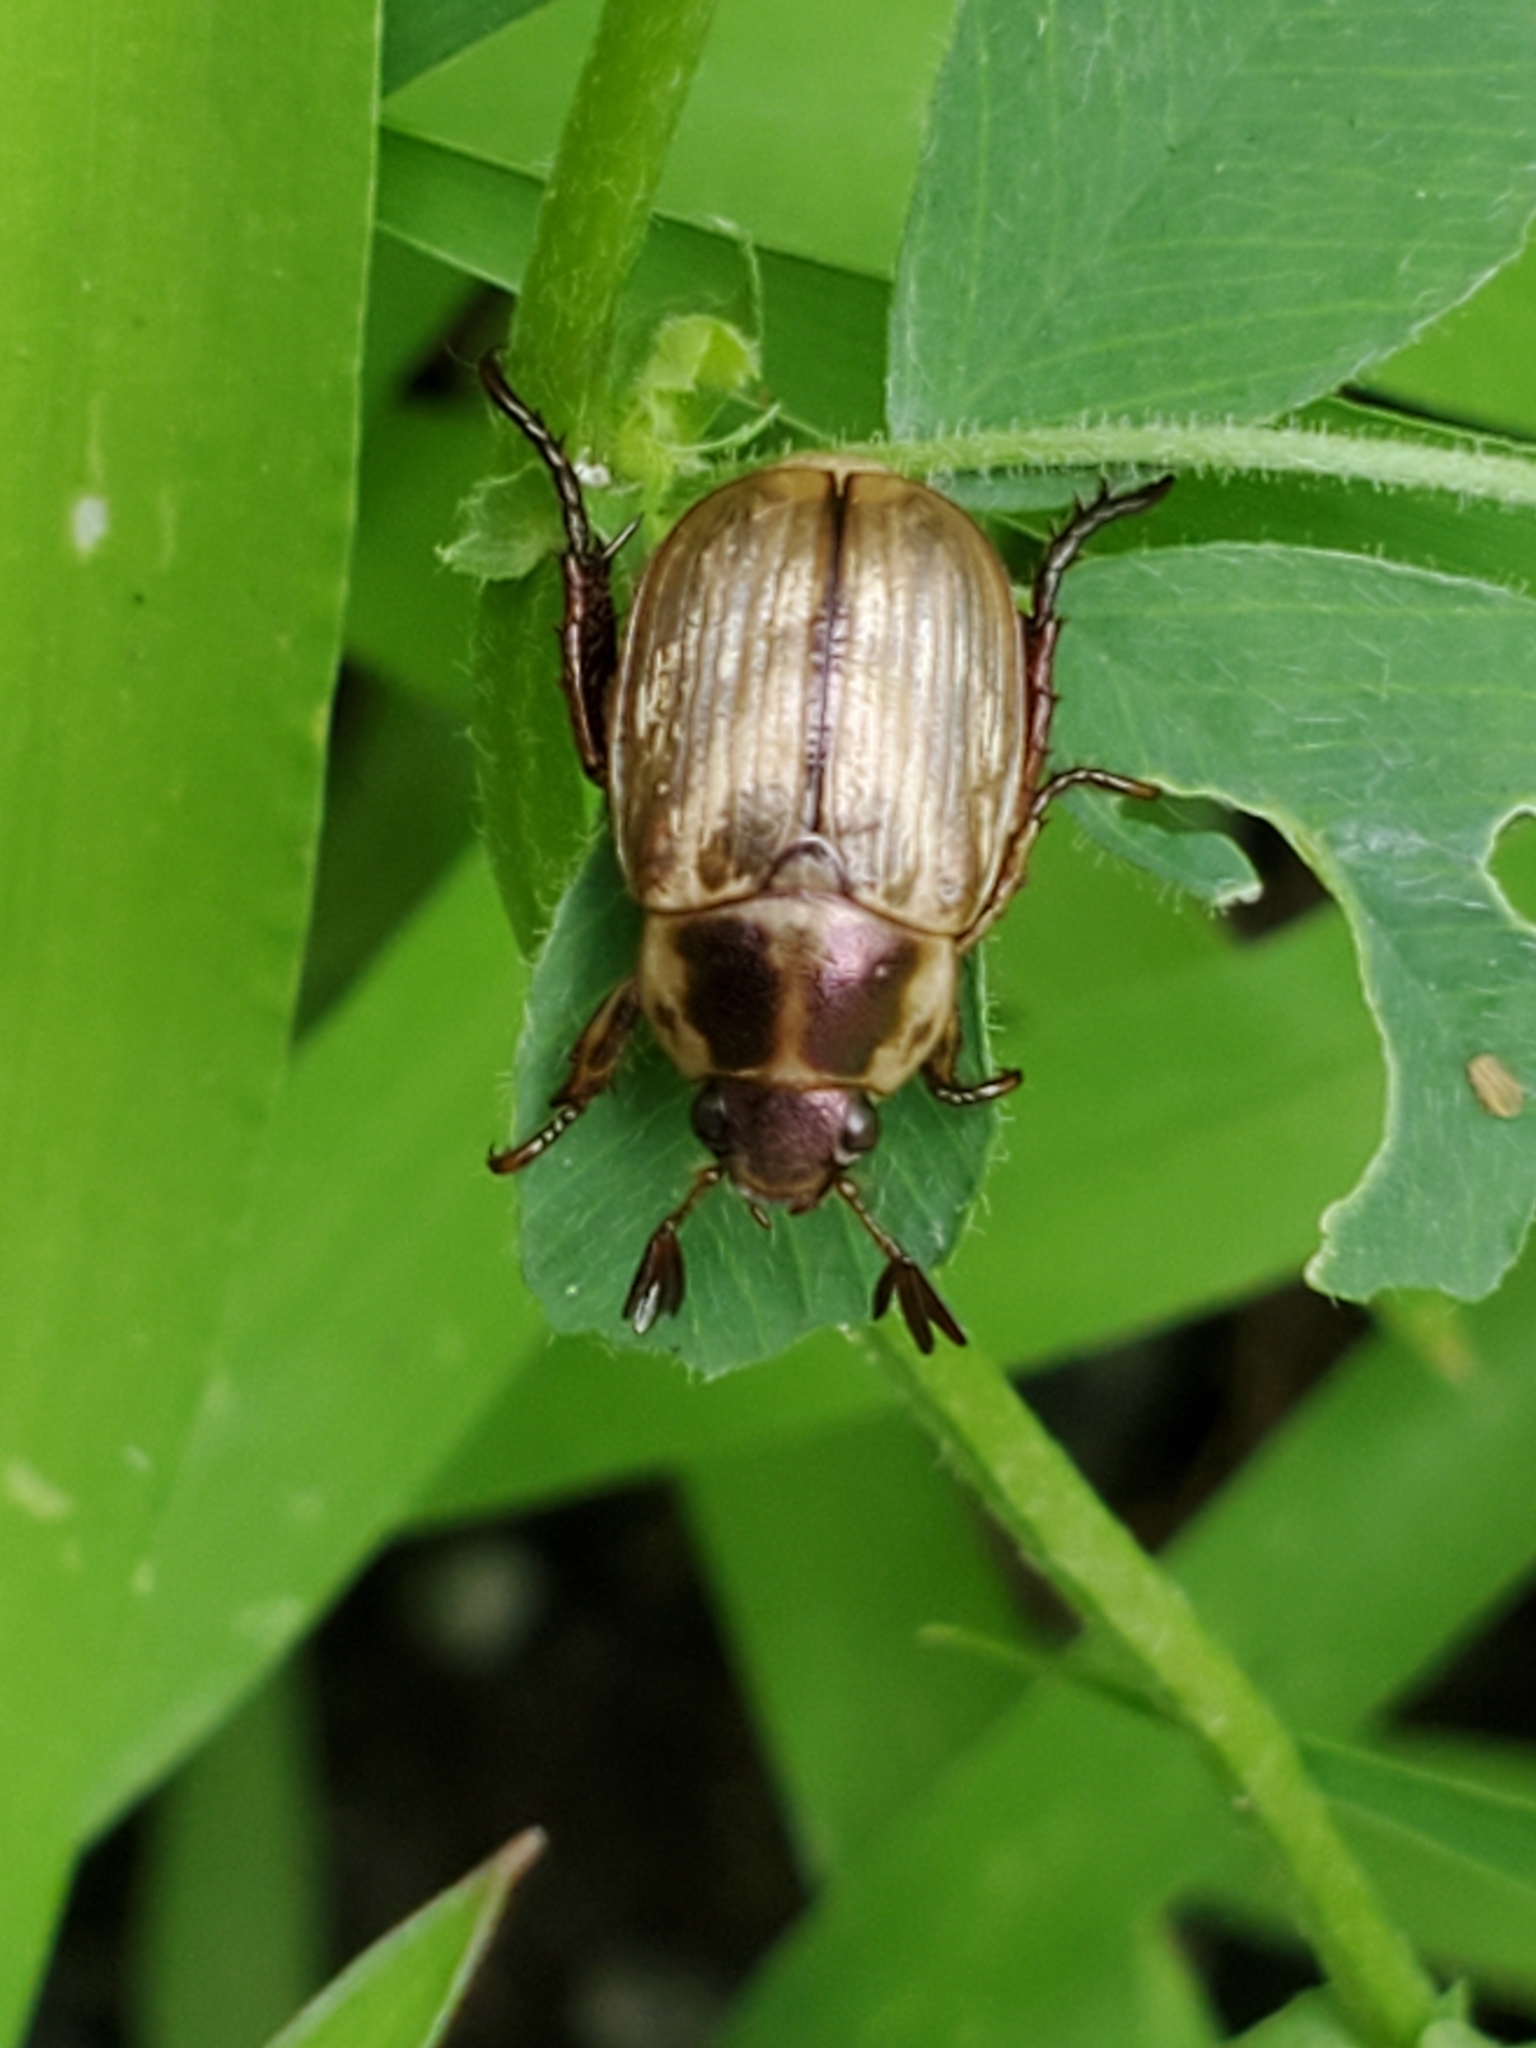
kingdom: Animalia
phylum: Arthropoda
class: Insecta
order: Coleoptera
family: Scarabaeidae
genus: Exomala
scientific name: Exomala orientalis
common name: Oriental beetle
